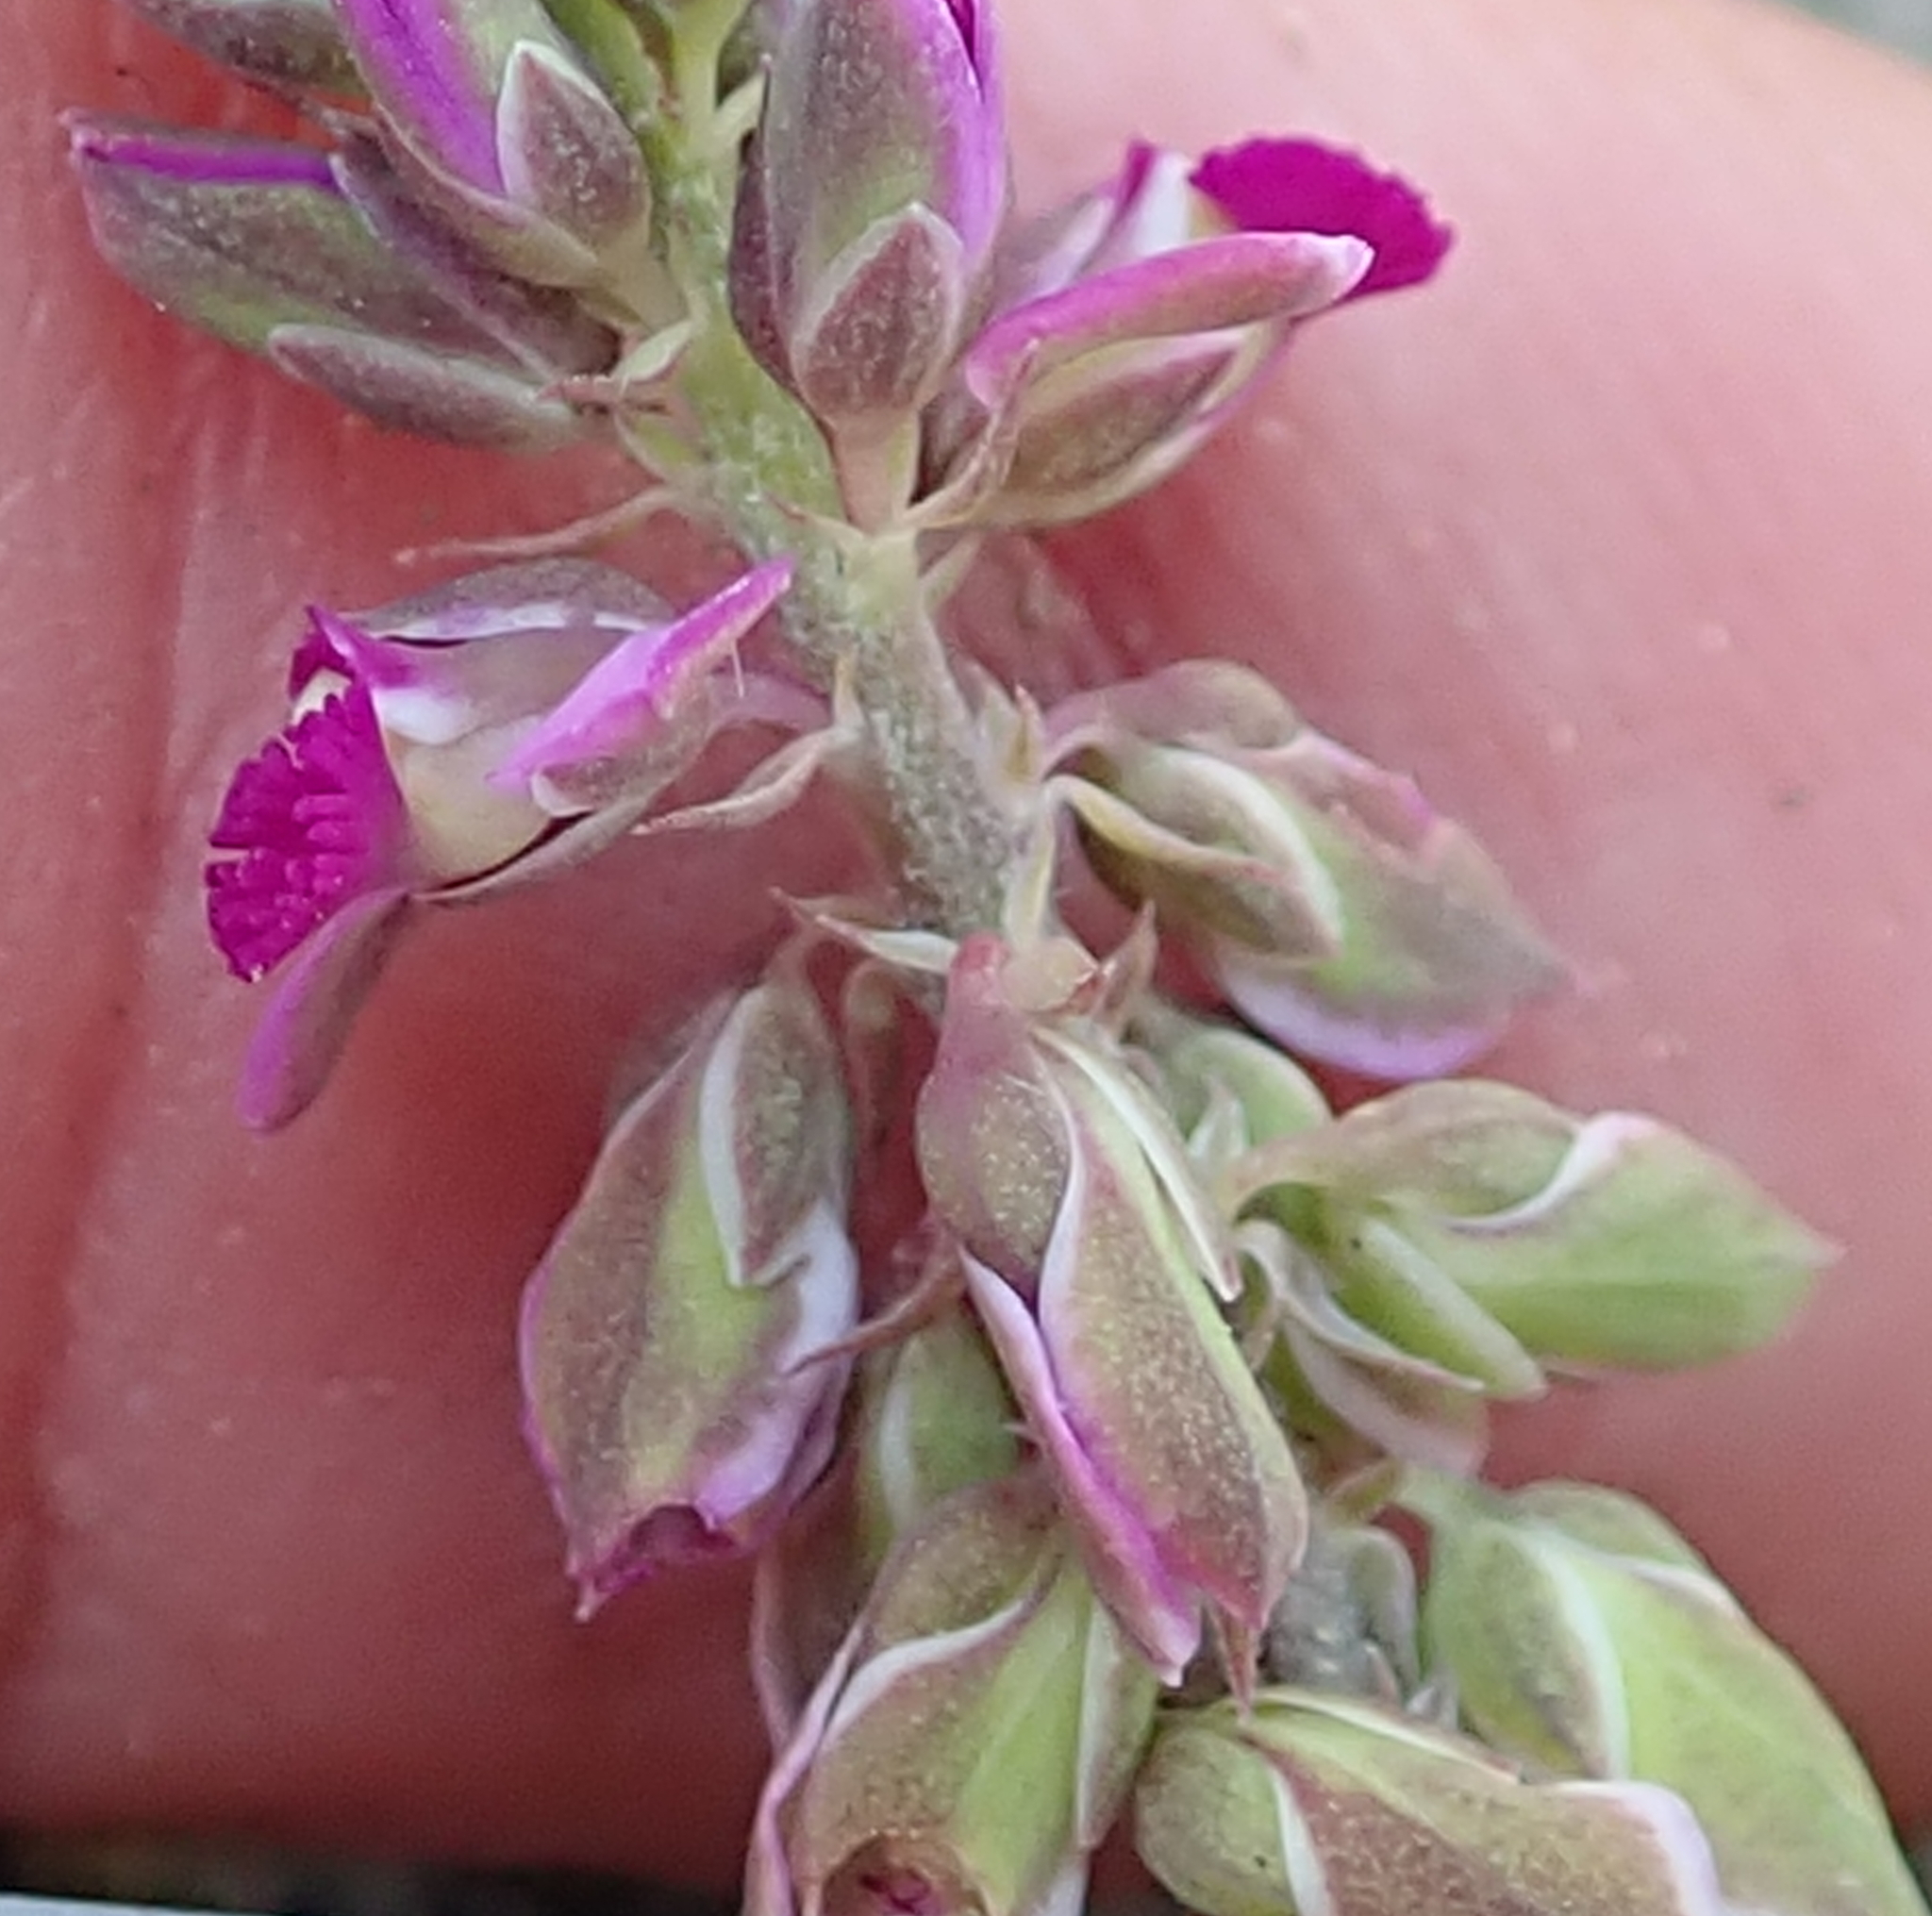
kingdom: Plantae
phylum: Tracheophyta
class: Magnoliopsida
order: Fabales
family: Polygalaceae
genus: Polygala
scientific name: Polygala hispida
